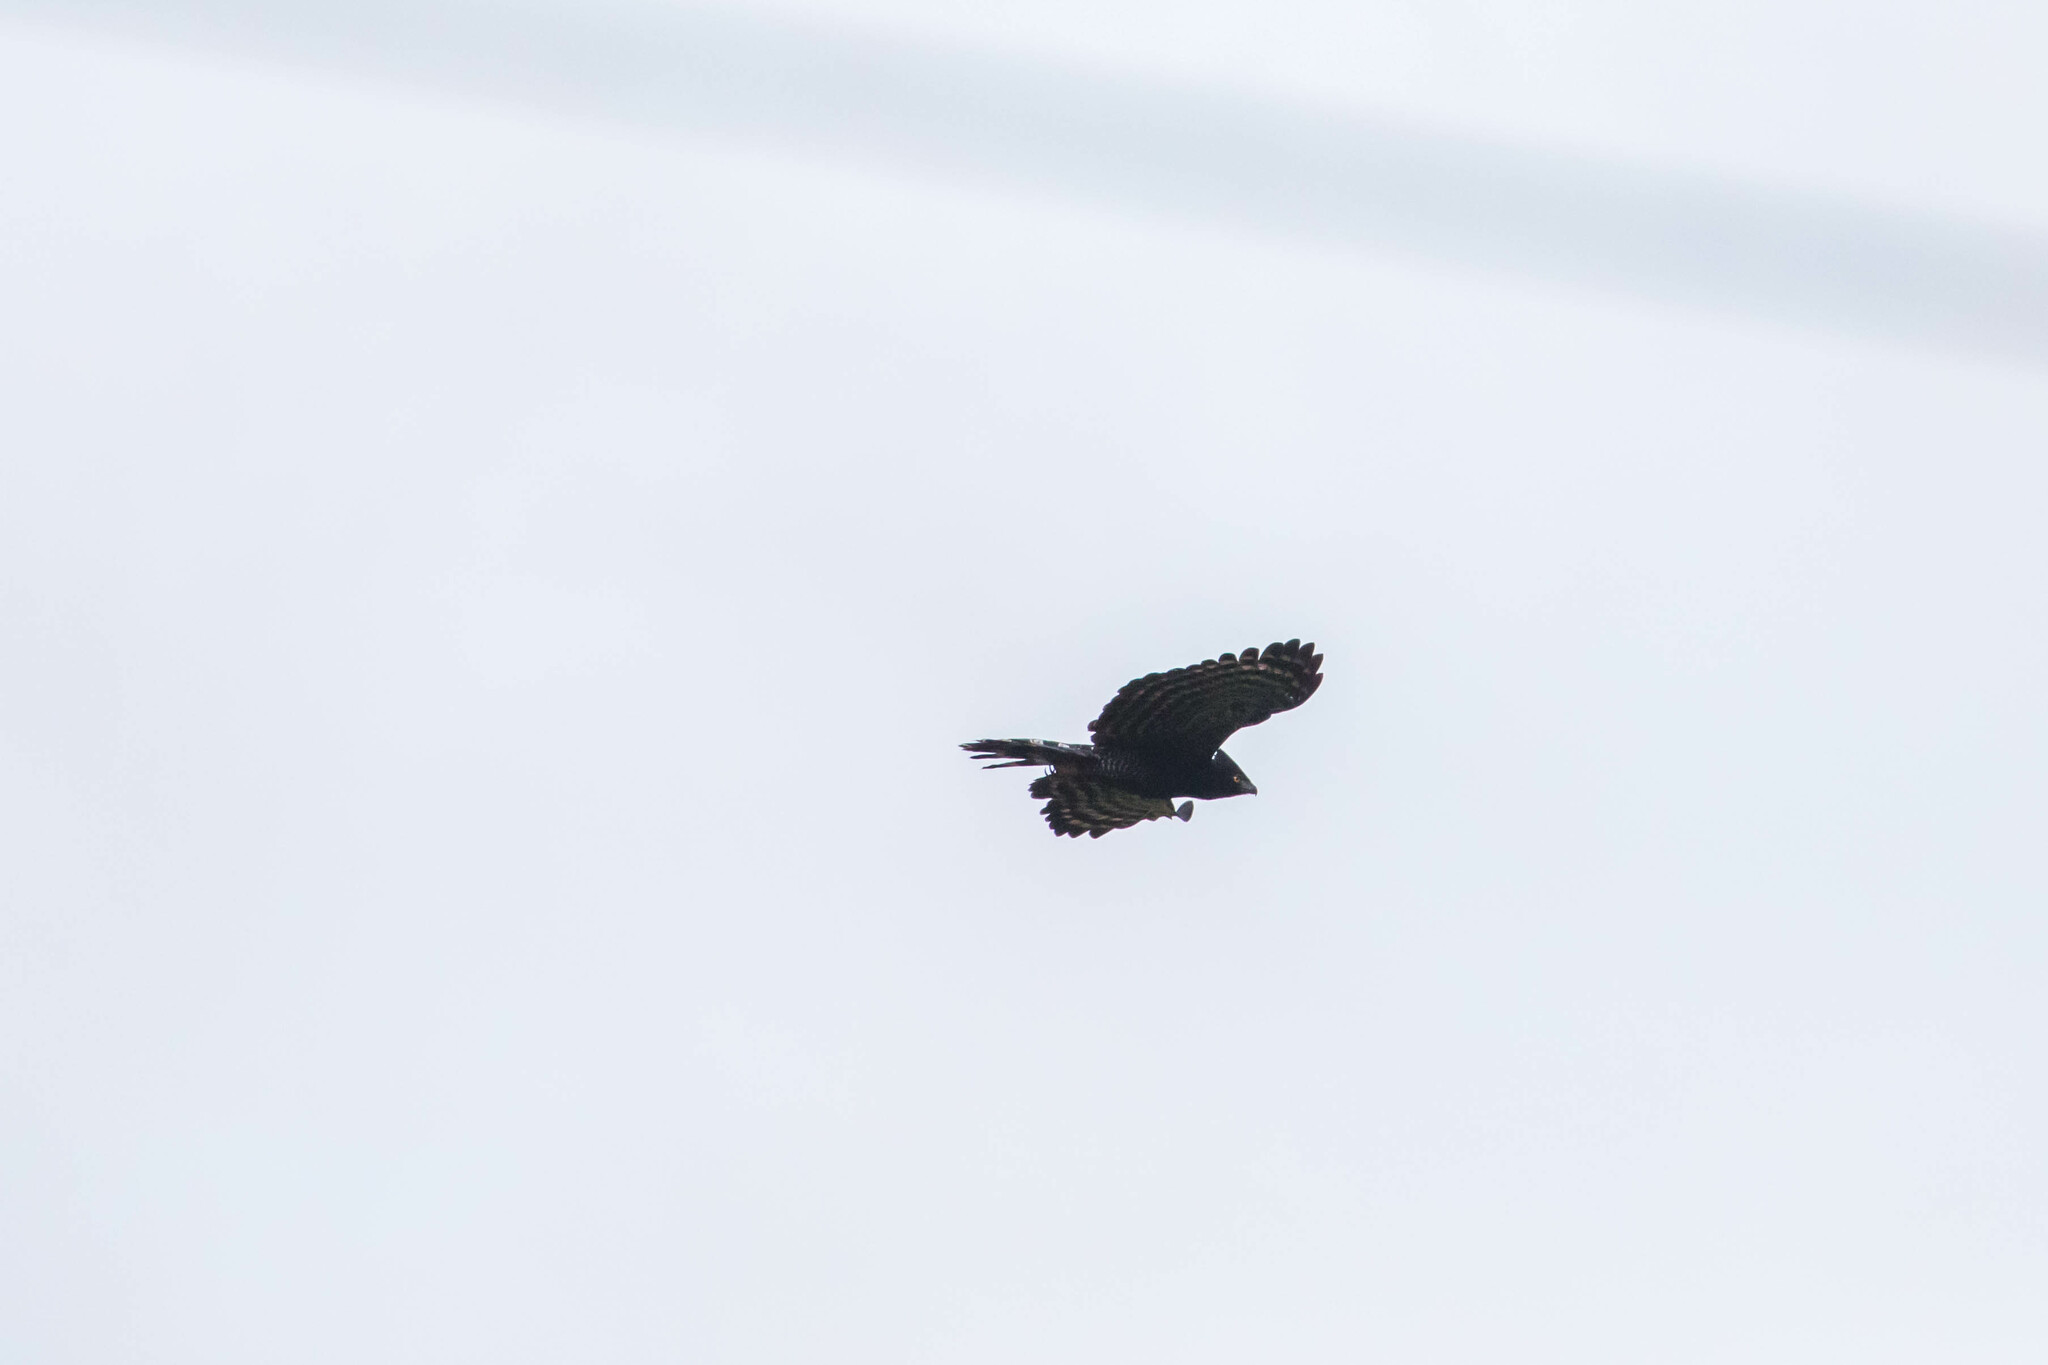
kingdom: Animalia
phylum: Chordata
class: Aves
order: Accipitriformes
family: Accipitridae
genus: Spizaetus
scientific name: Spizaetus tyrannus
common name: Black hawk-eagle
